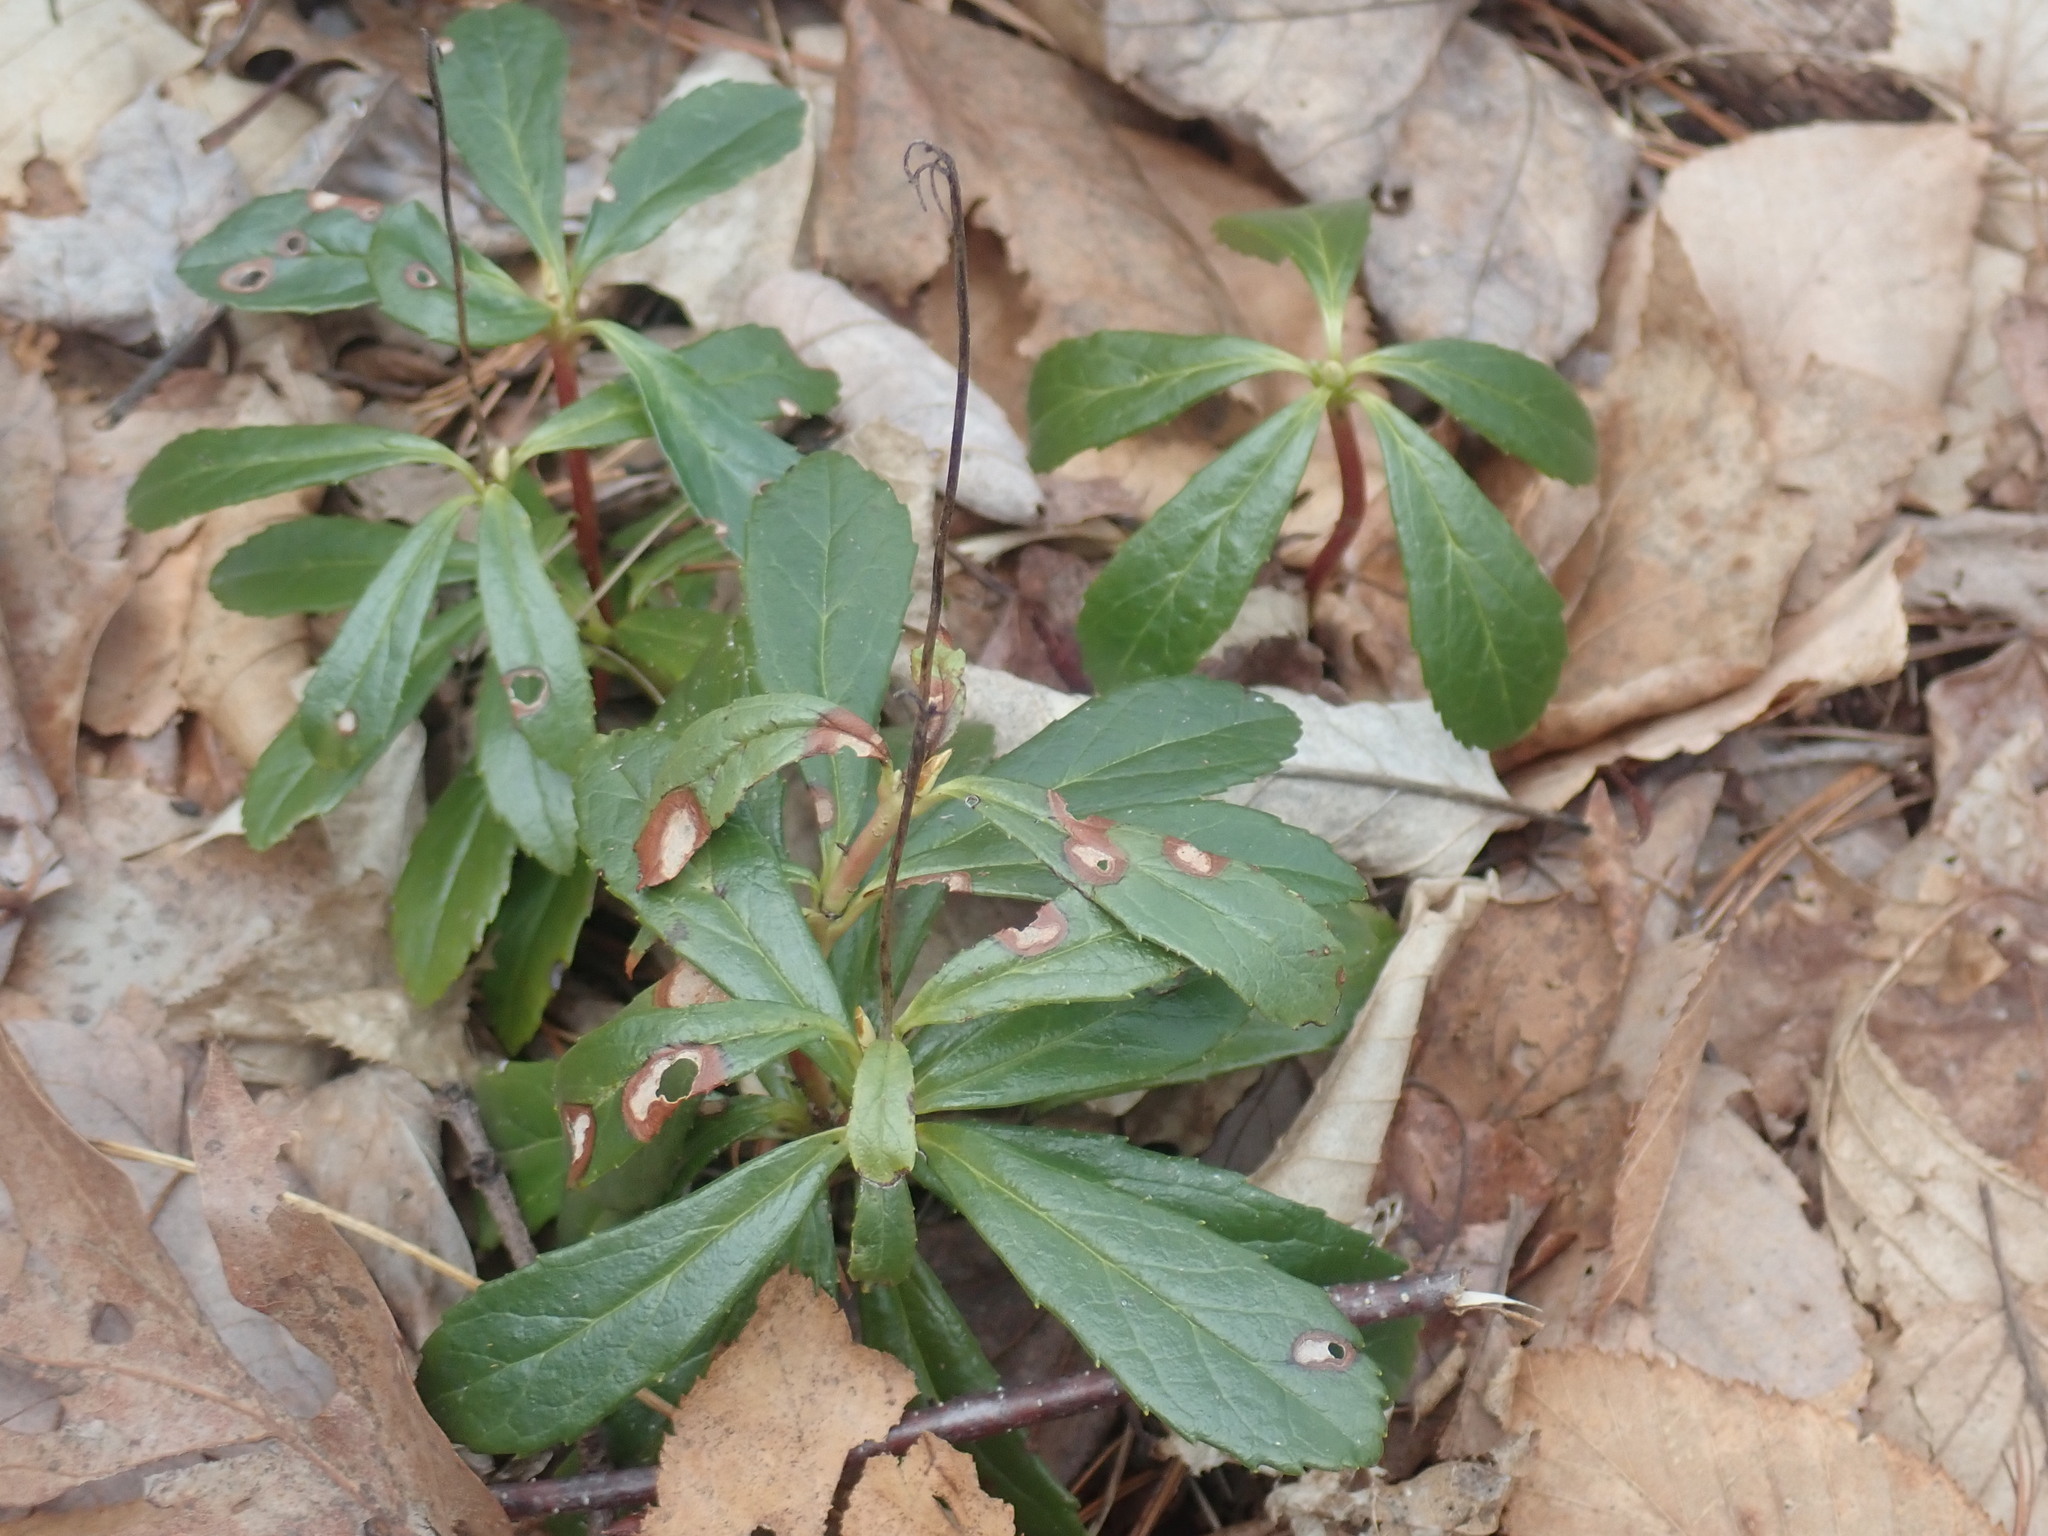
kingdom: Plantae
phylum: Tracheophyta
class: Magnoliopsida
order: Ericales
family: Ericaceae
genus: Chimaphila
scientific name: Chimaphila umbellata
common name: Pipsissewa
